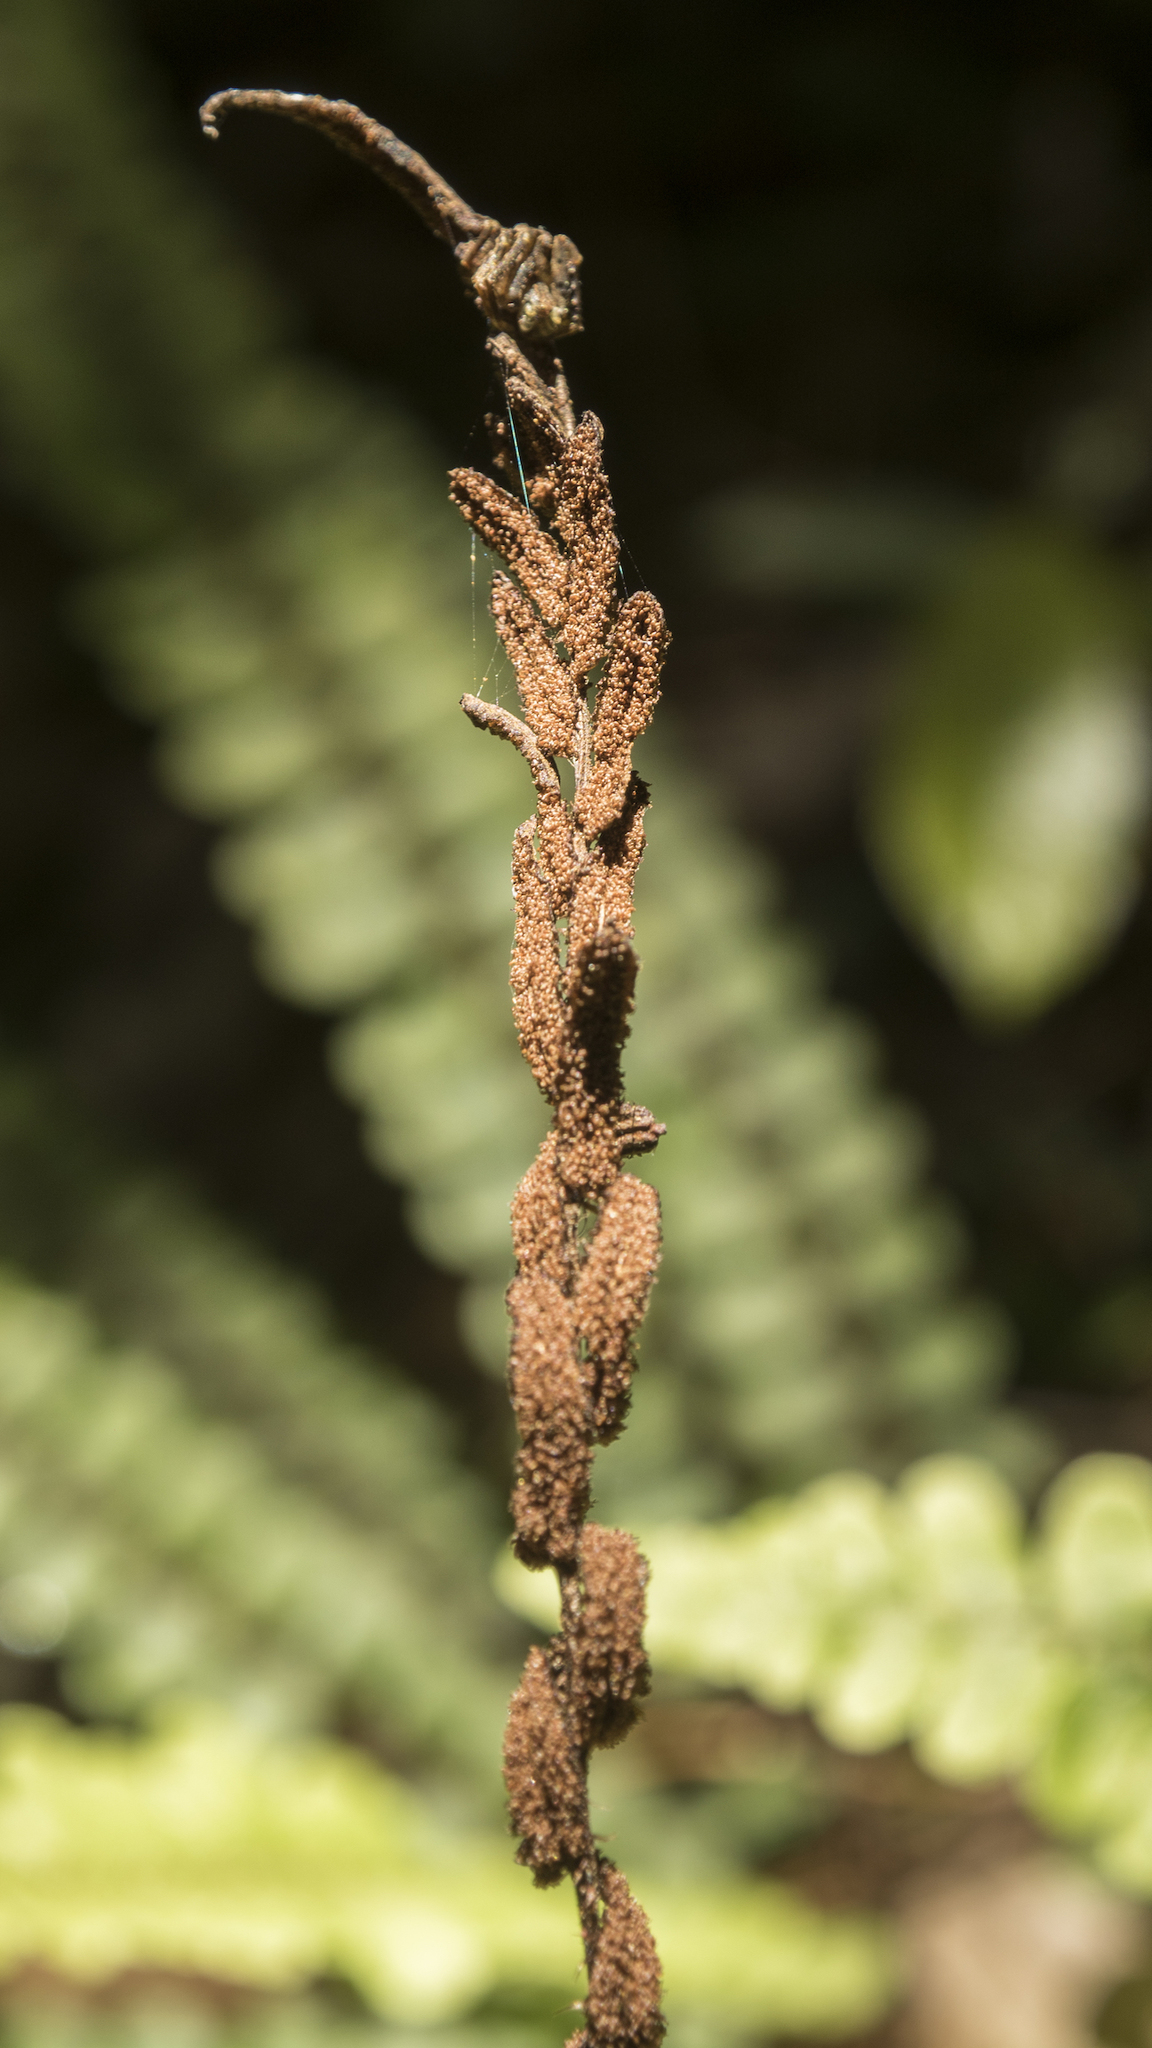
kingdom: Plantae
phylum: Tracheophyta
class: Polypodiopsida
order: Polypodiales
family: Blechnaceae
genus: Cranfillia
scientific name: Cranfillia fluviatilis
